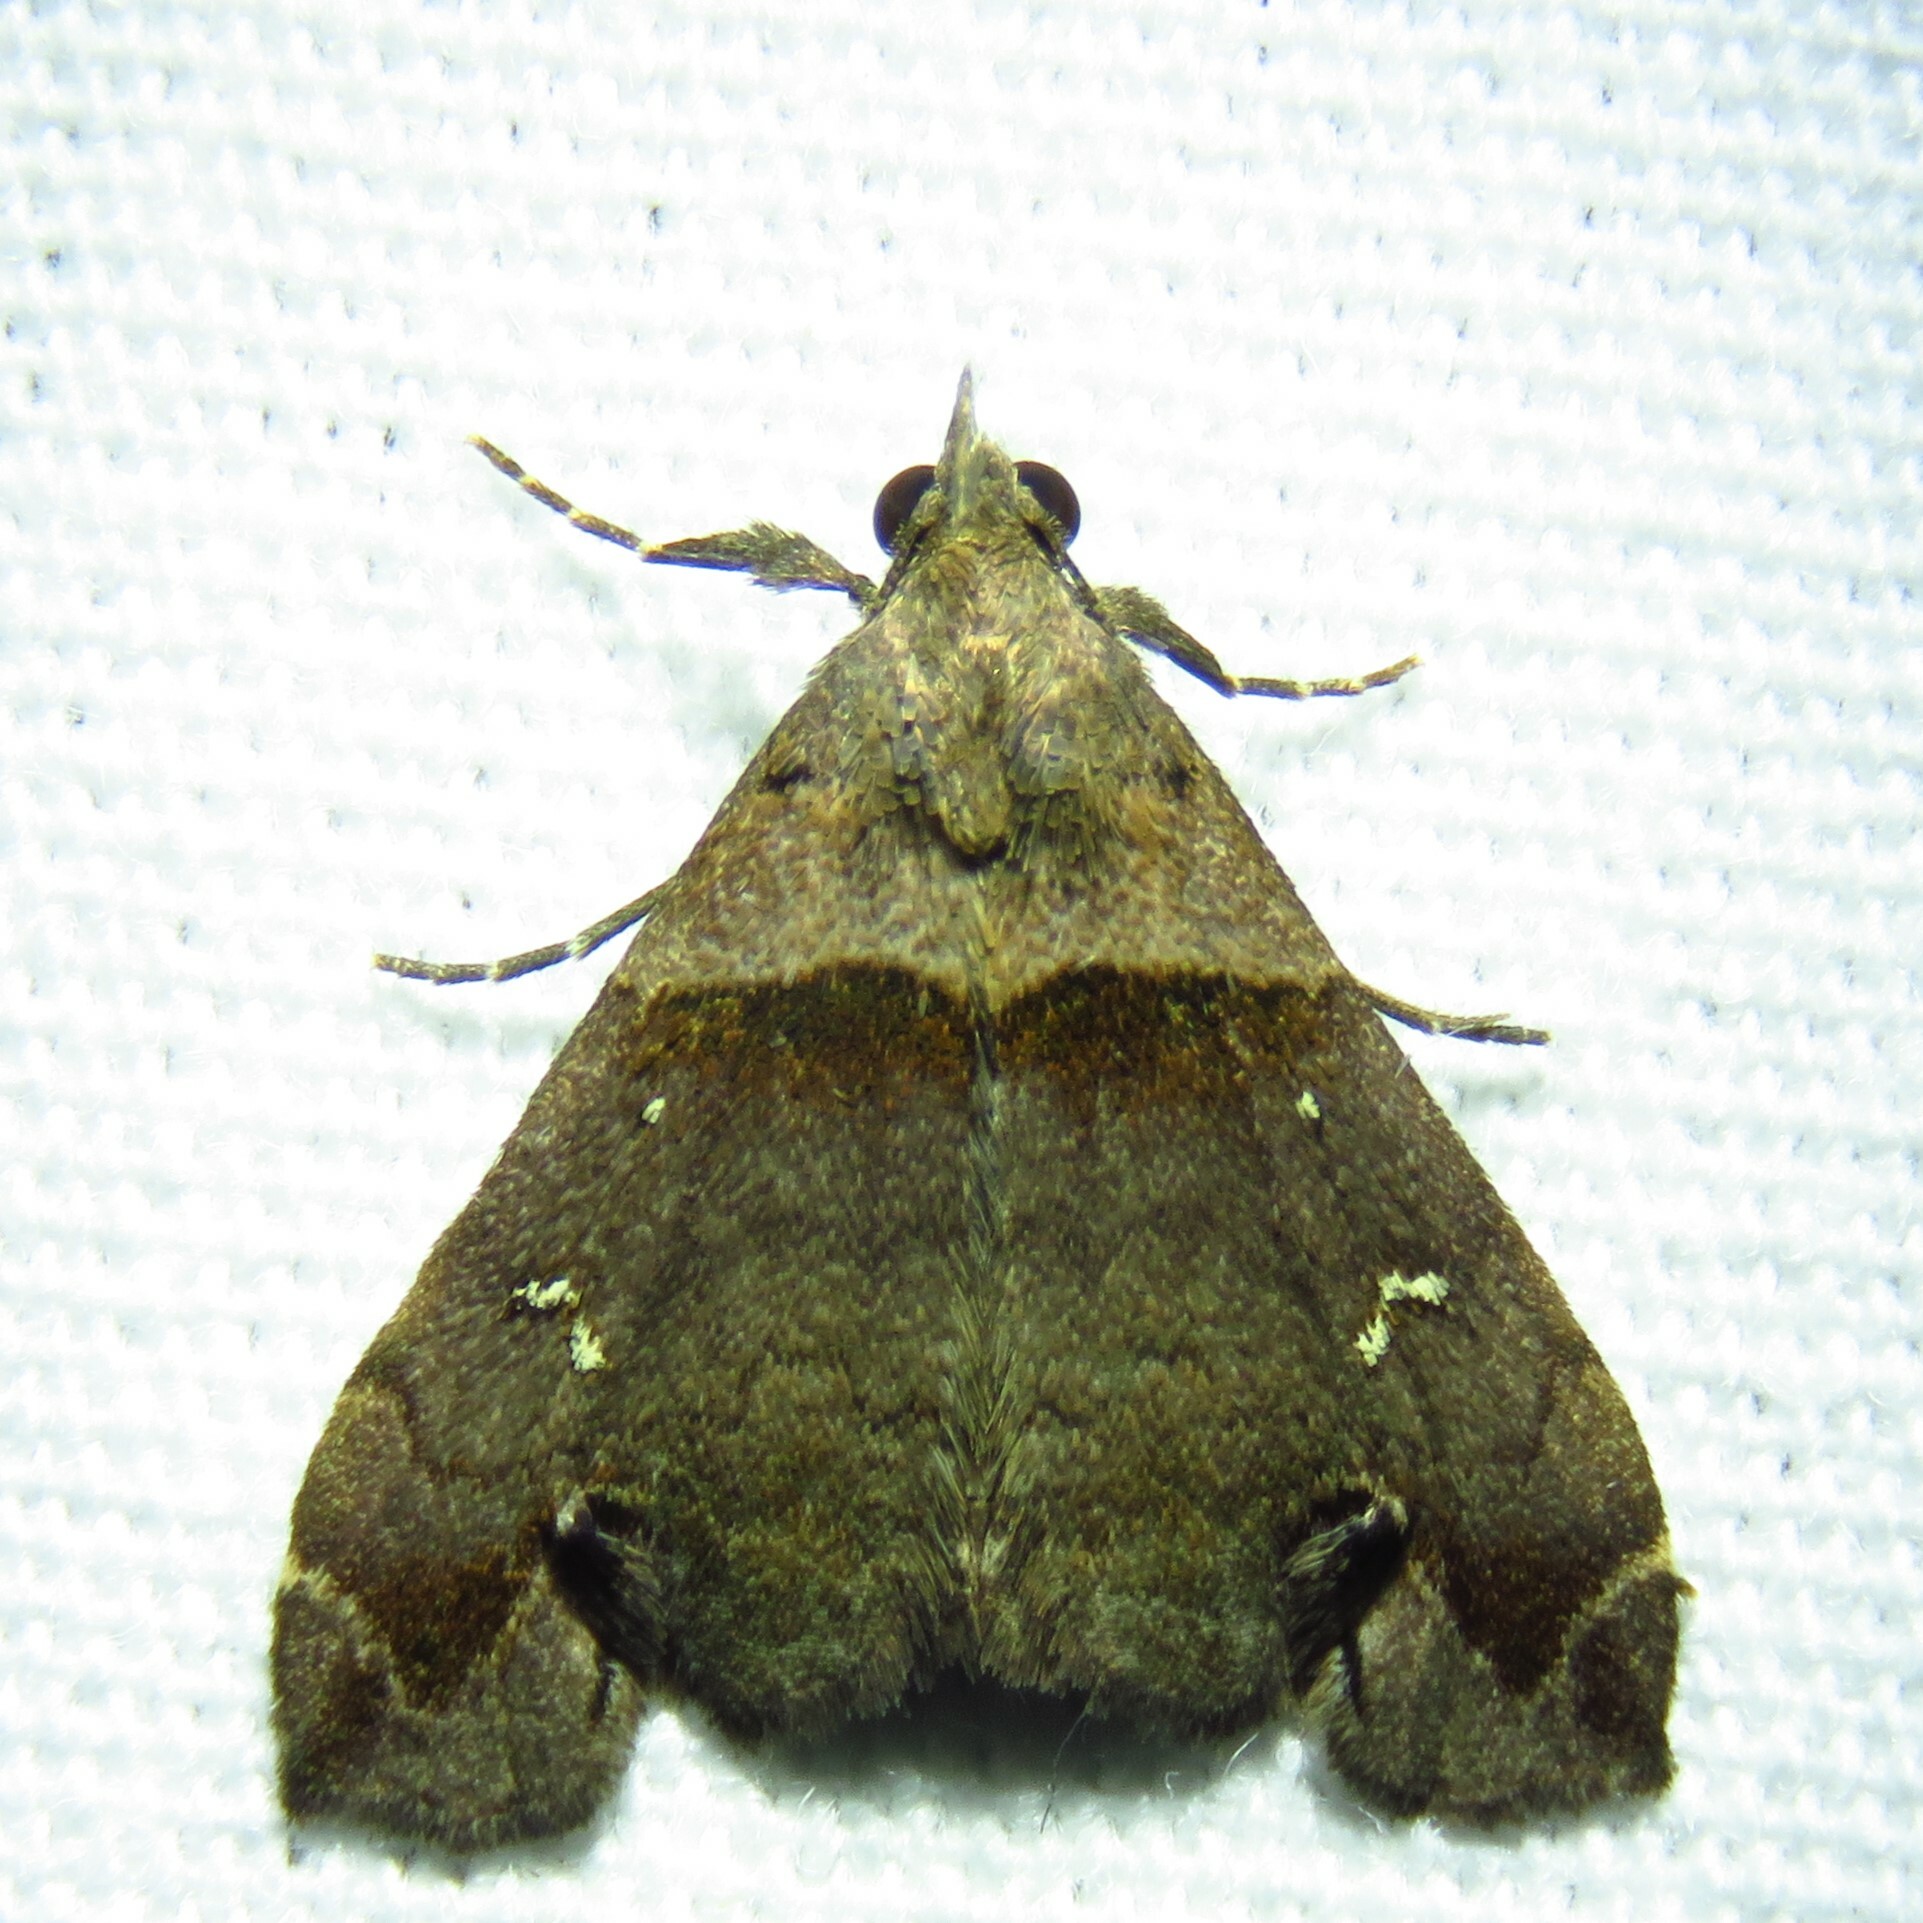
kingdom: Animalia
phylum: Arthropoda
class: Insecta
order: Lepidoptera
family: Erebidae
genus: Lascoria
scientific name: Lascoria ambigualis
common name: Ambiguous moth
